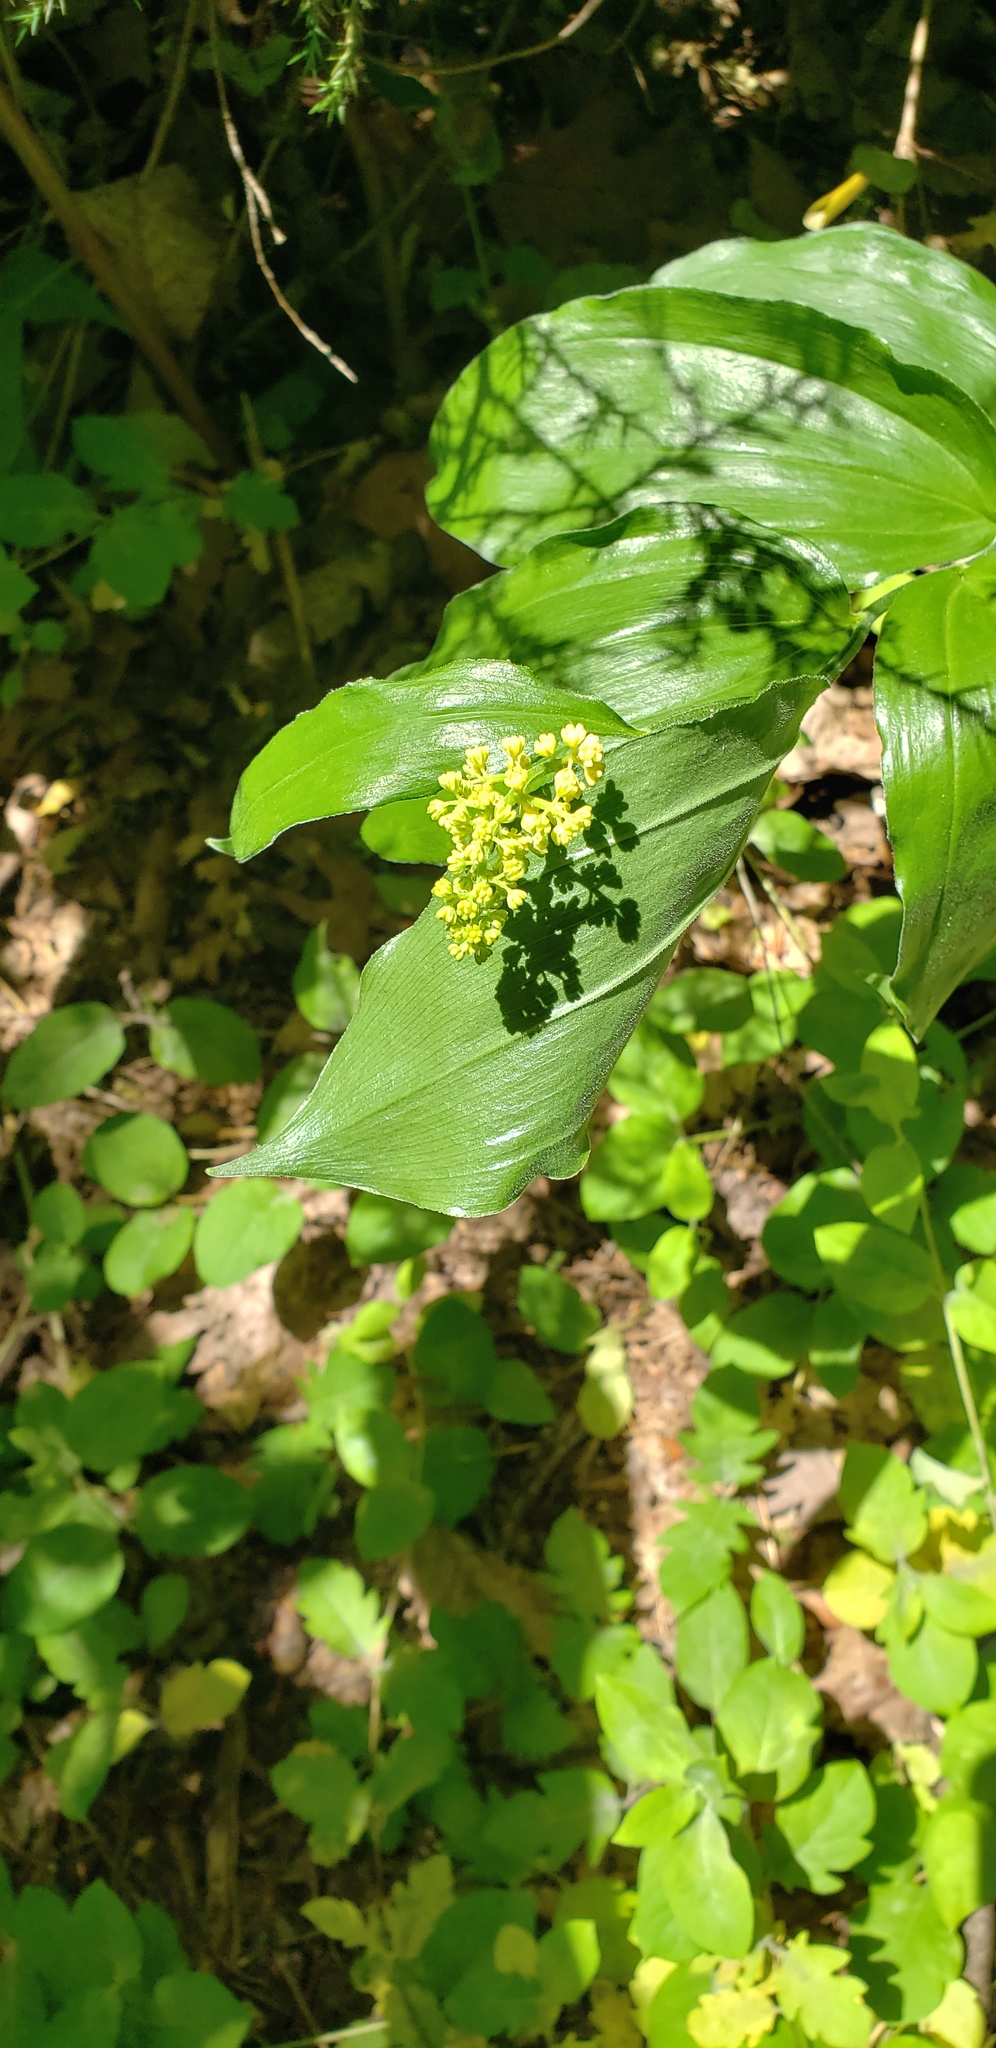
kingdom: Plantae
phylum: Tracheophyta
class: Liliopsida
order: Asparagales
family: Asparagaceae
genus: Maianthemum
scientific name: Maianthemum racemosum
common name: False spikenard
